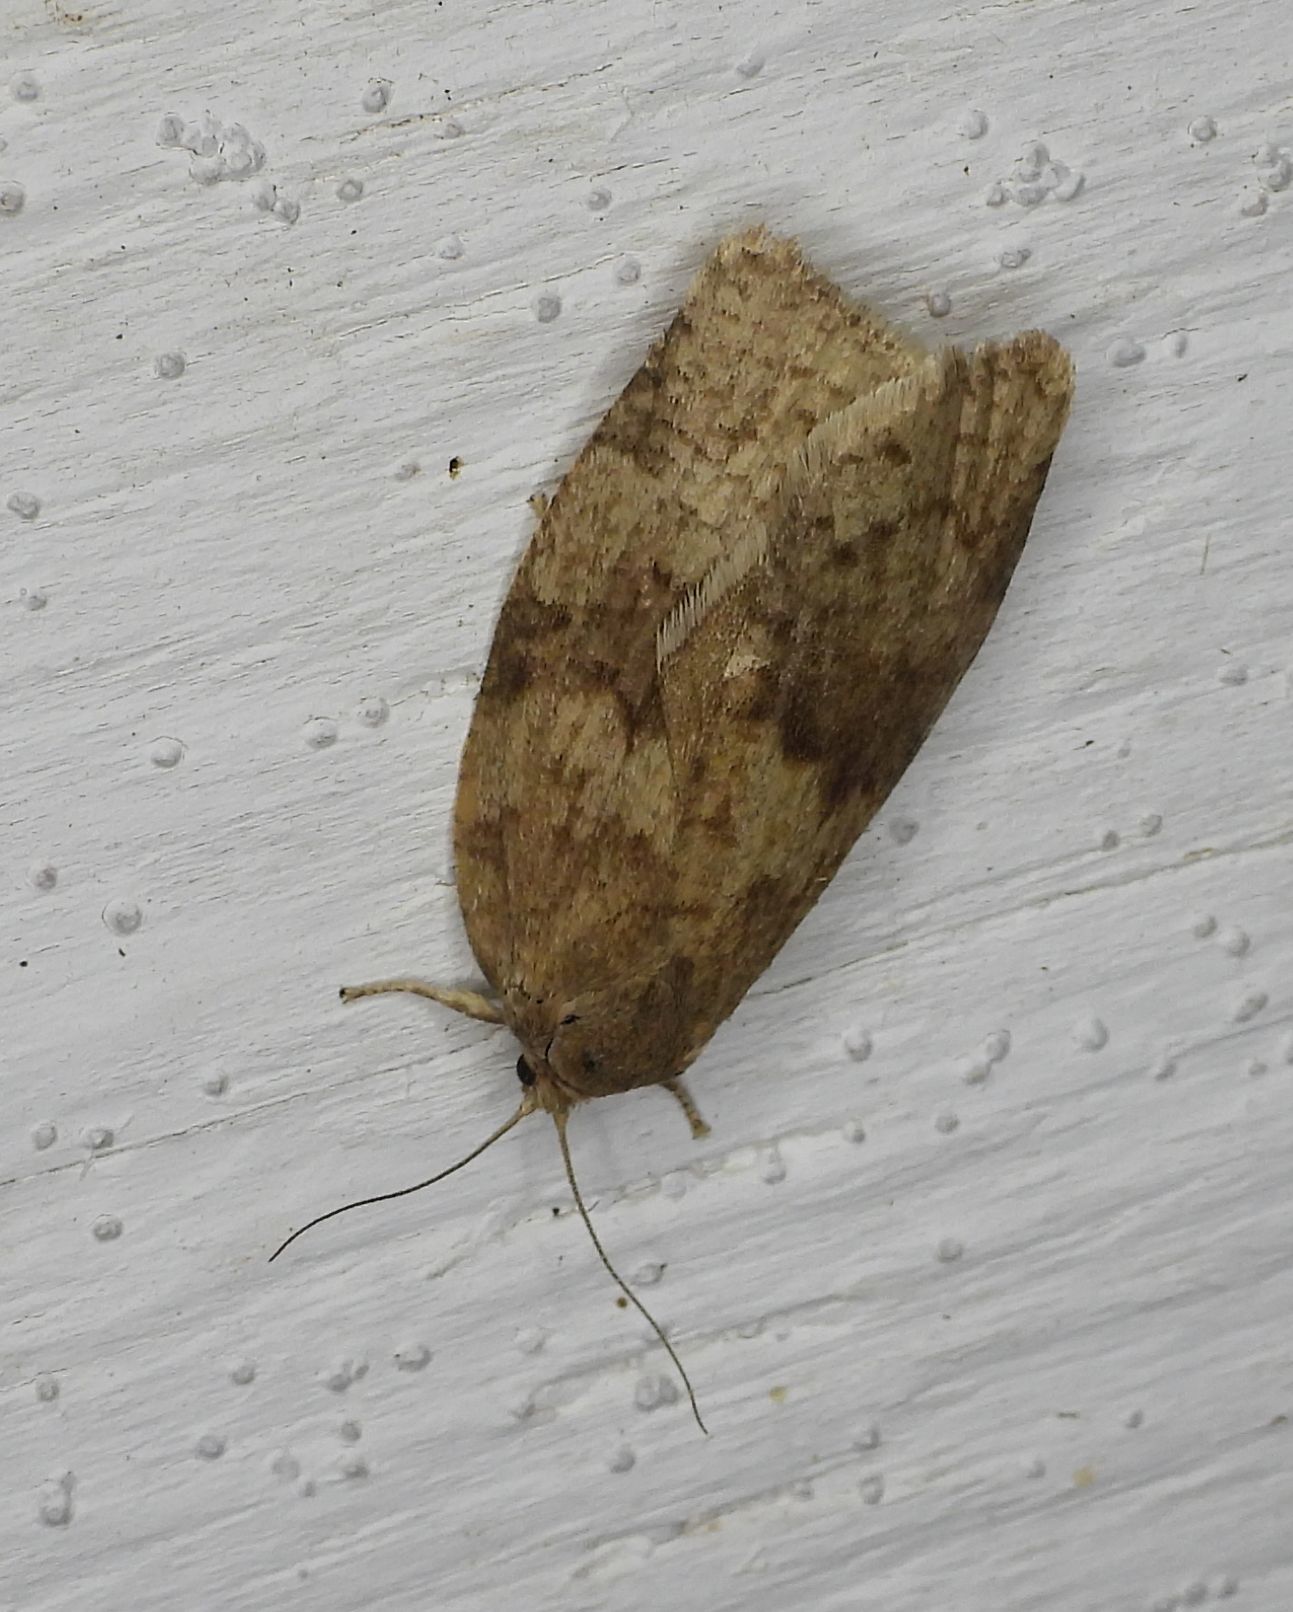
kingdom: Animalia
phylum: Arthropoda
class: Insecta
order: Lepidoptera
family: Tortricidae
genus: Choristoneura
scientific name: Choristoneura conflictana
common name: Large aspen tortrix
